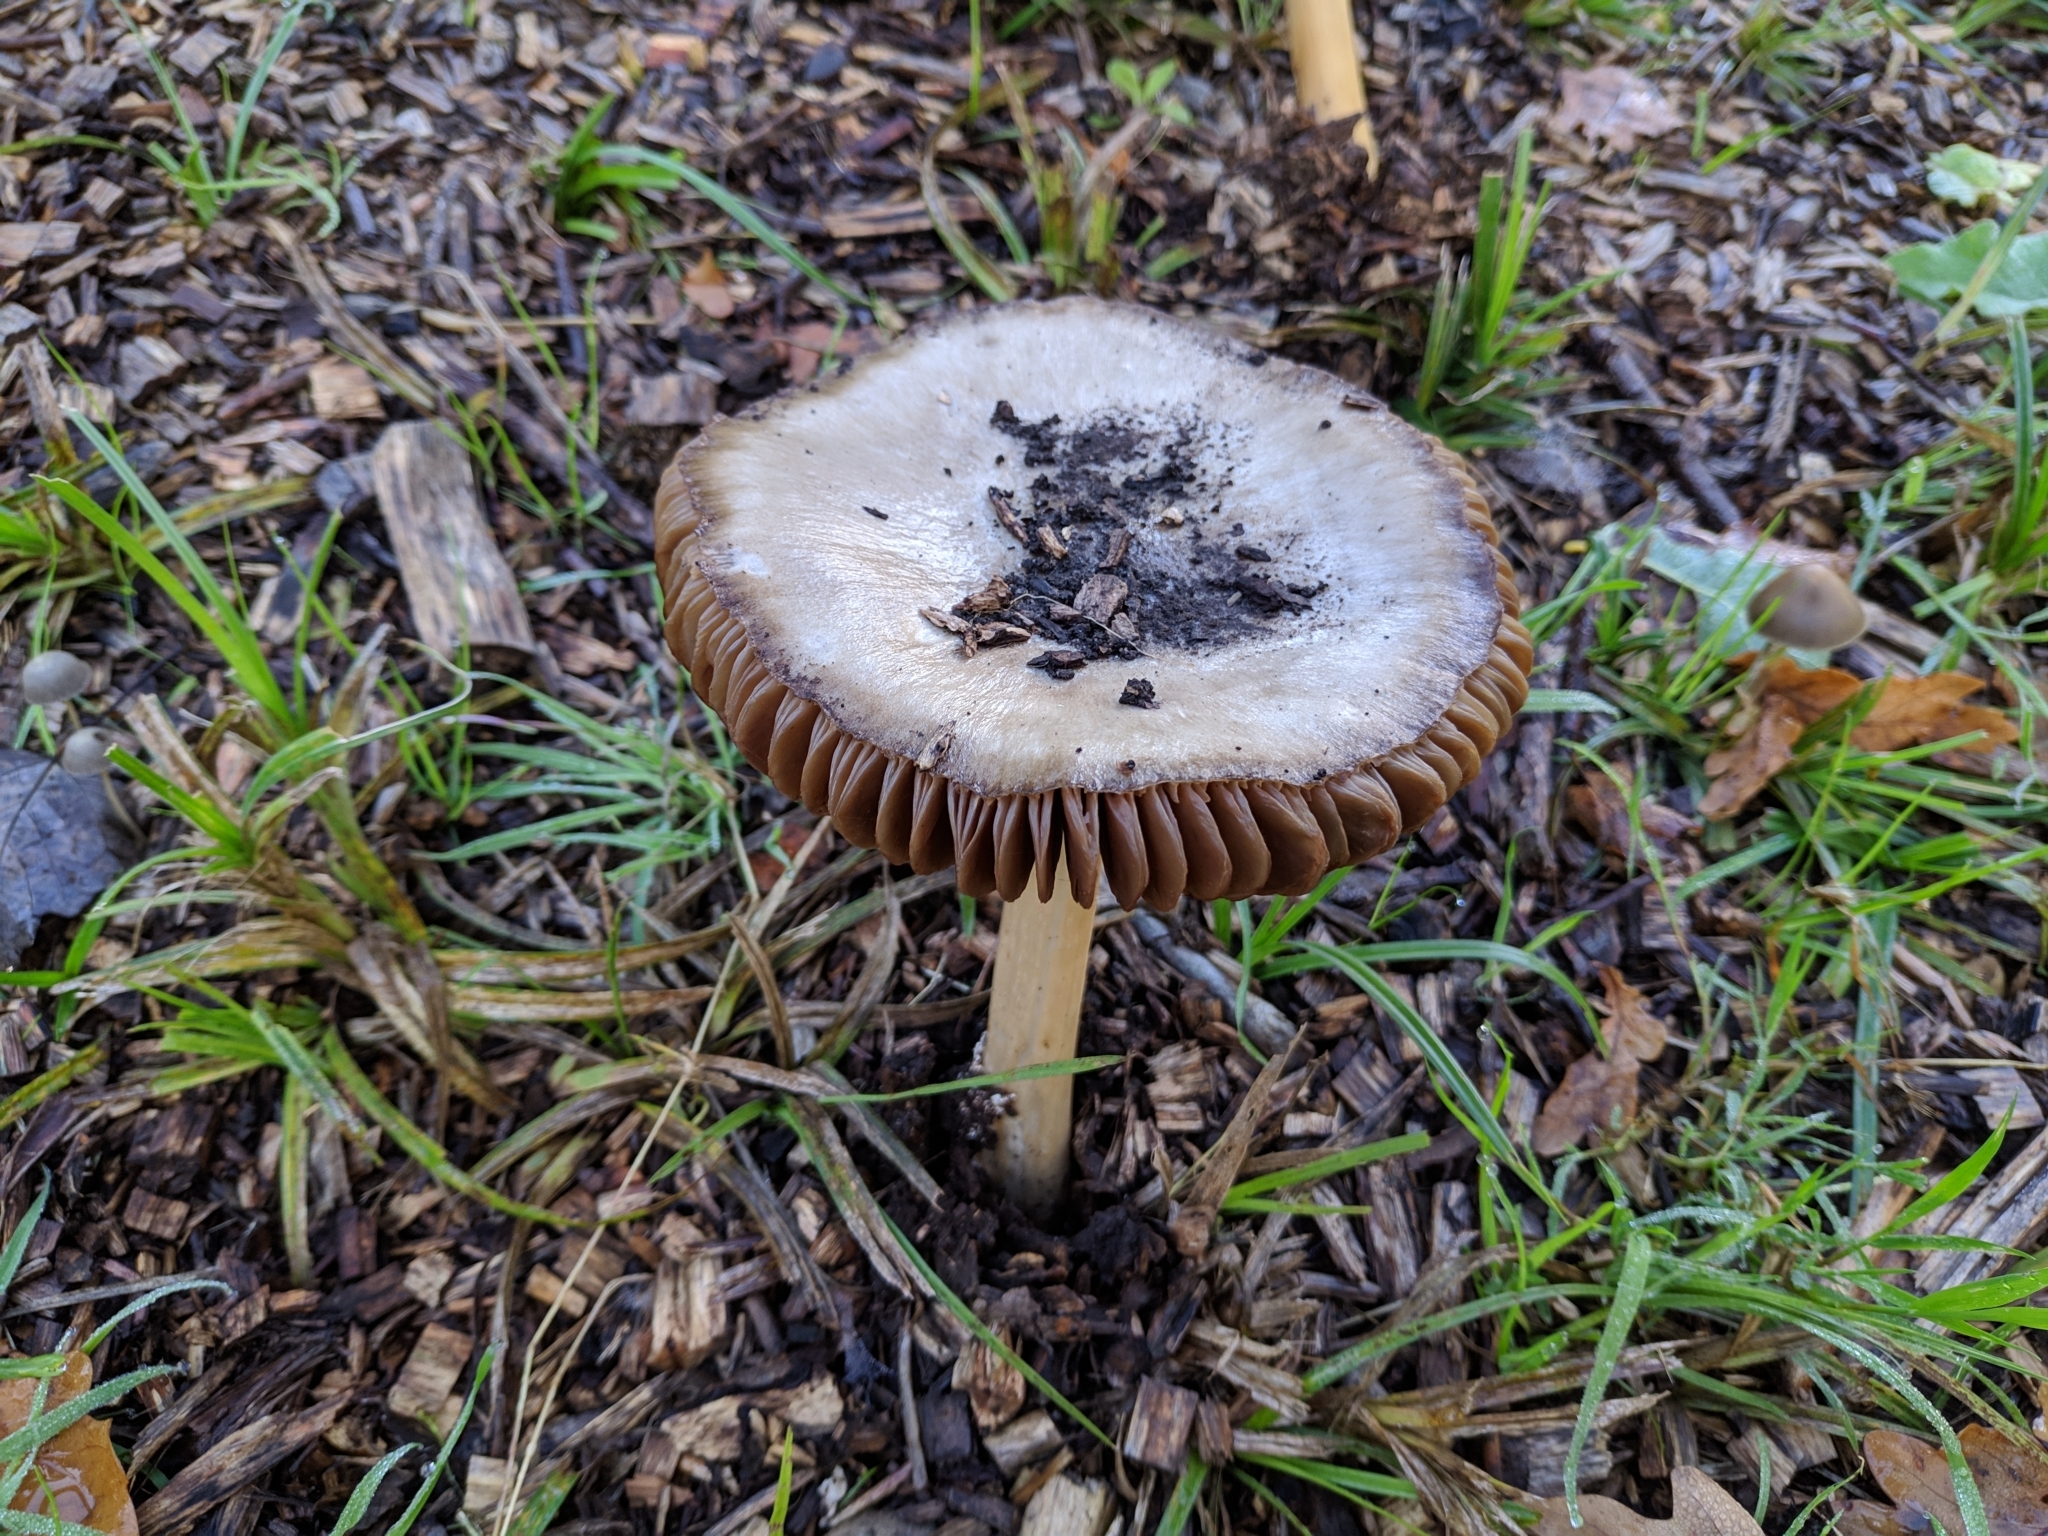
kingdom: Fungi
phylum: Basidiomycota
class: Agaricomycetes
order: Agaricales
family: Pluteaceae
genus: Volvopluteus
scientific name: Volvopluteus gloiocephalus
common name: Stubble rosegill
